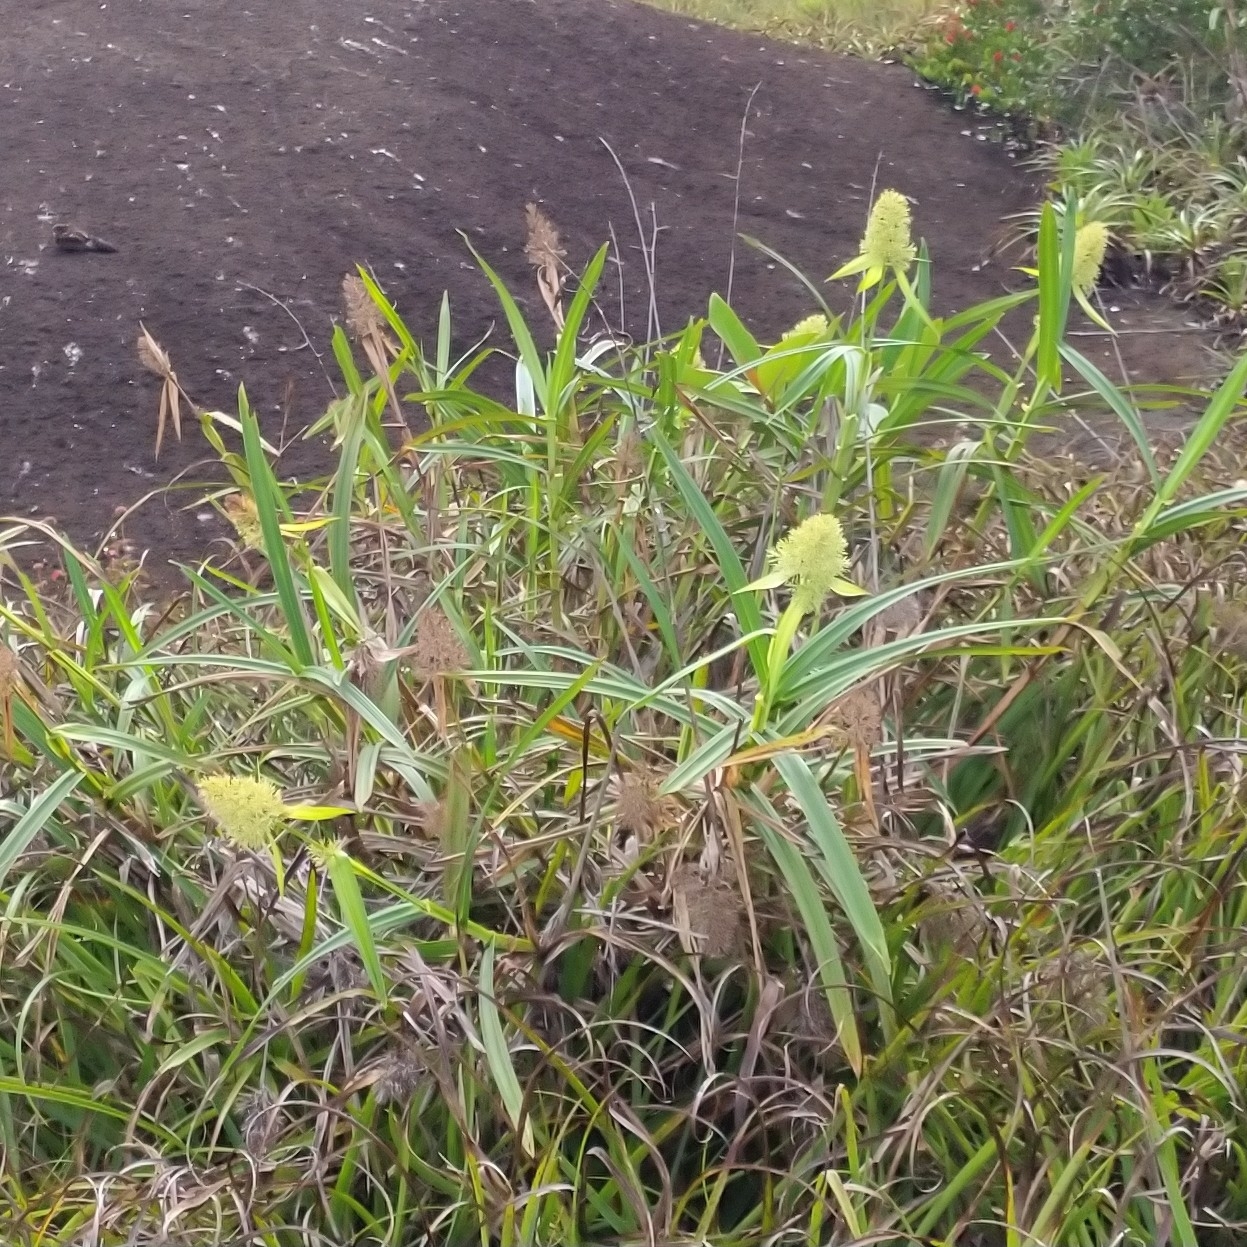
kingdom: Plantae
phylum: Tracheophyta
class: Liliopsida
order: Poales
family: Cyperaceae
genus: Scleria
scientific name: Scleria cyperina
